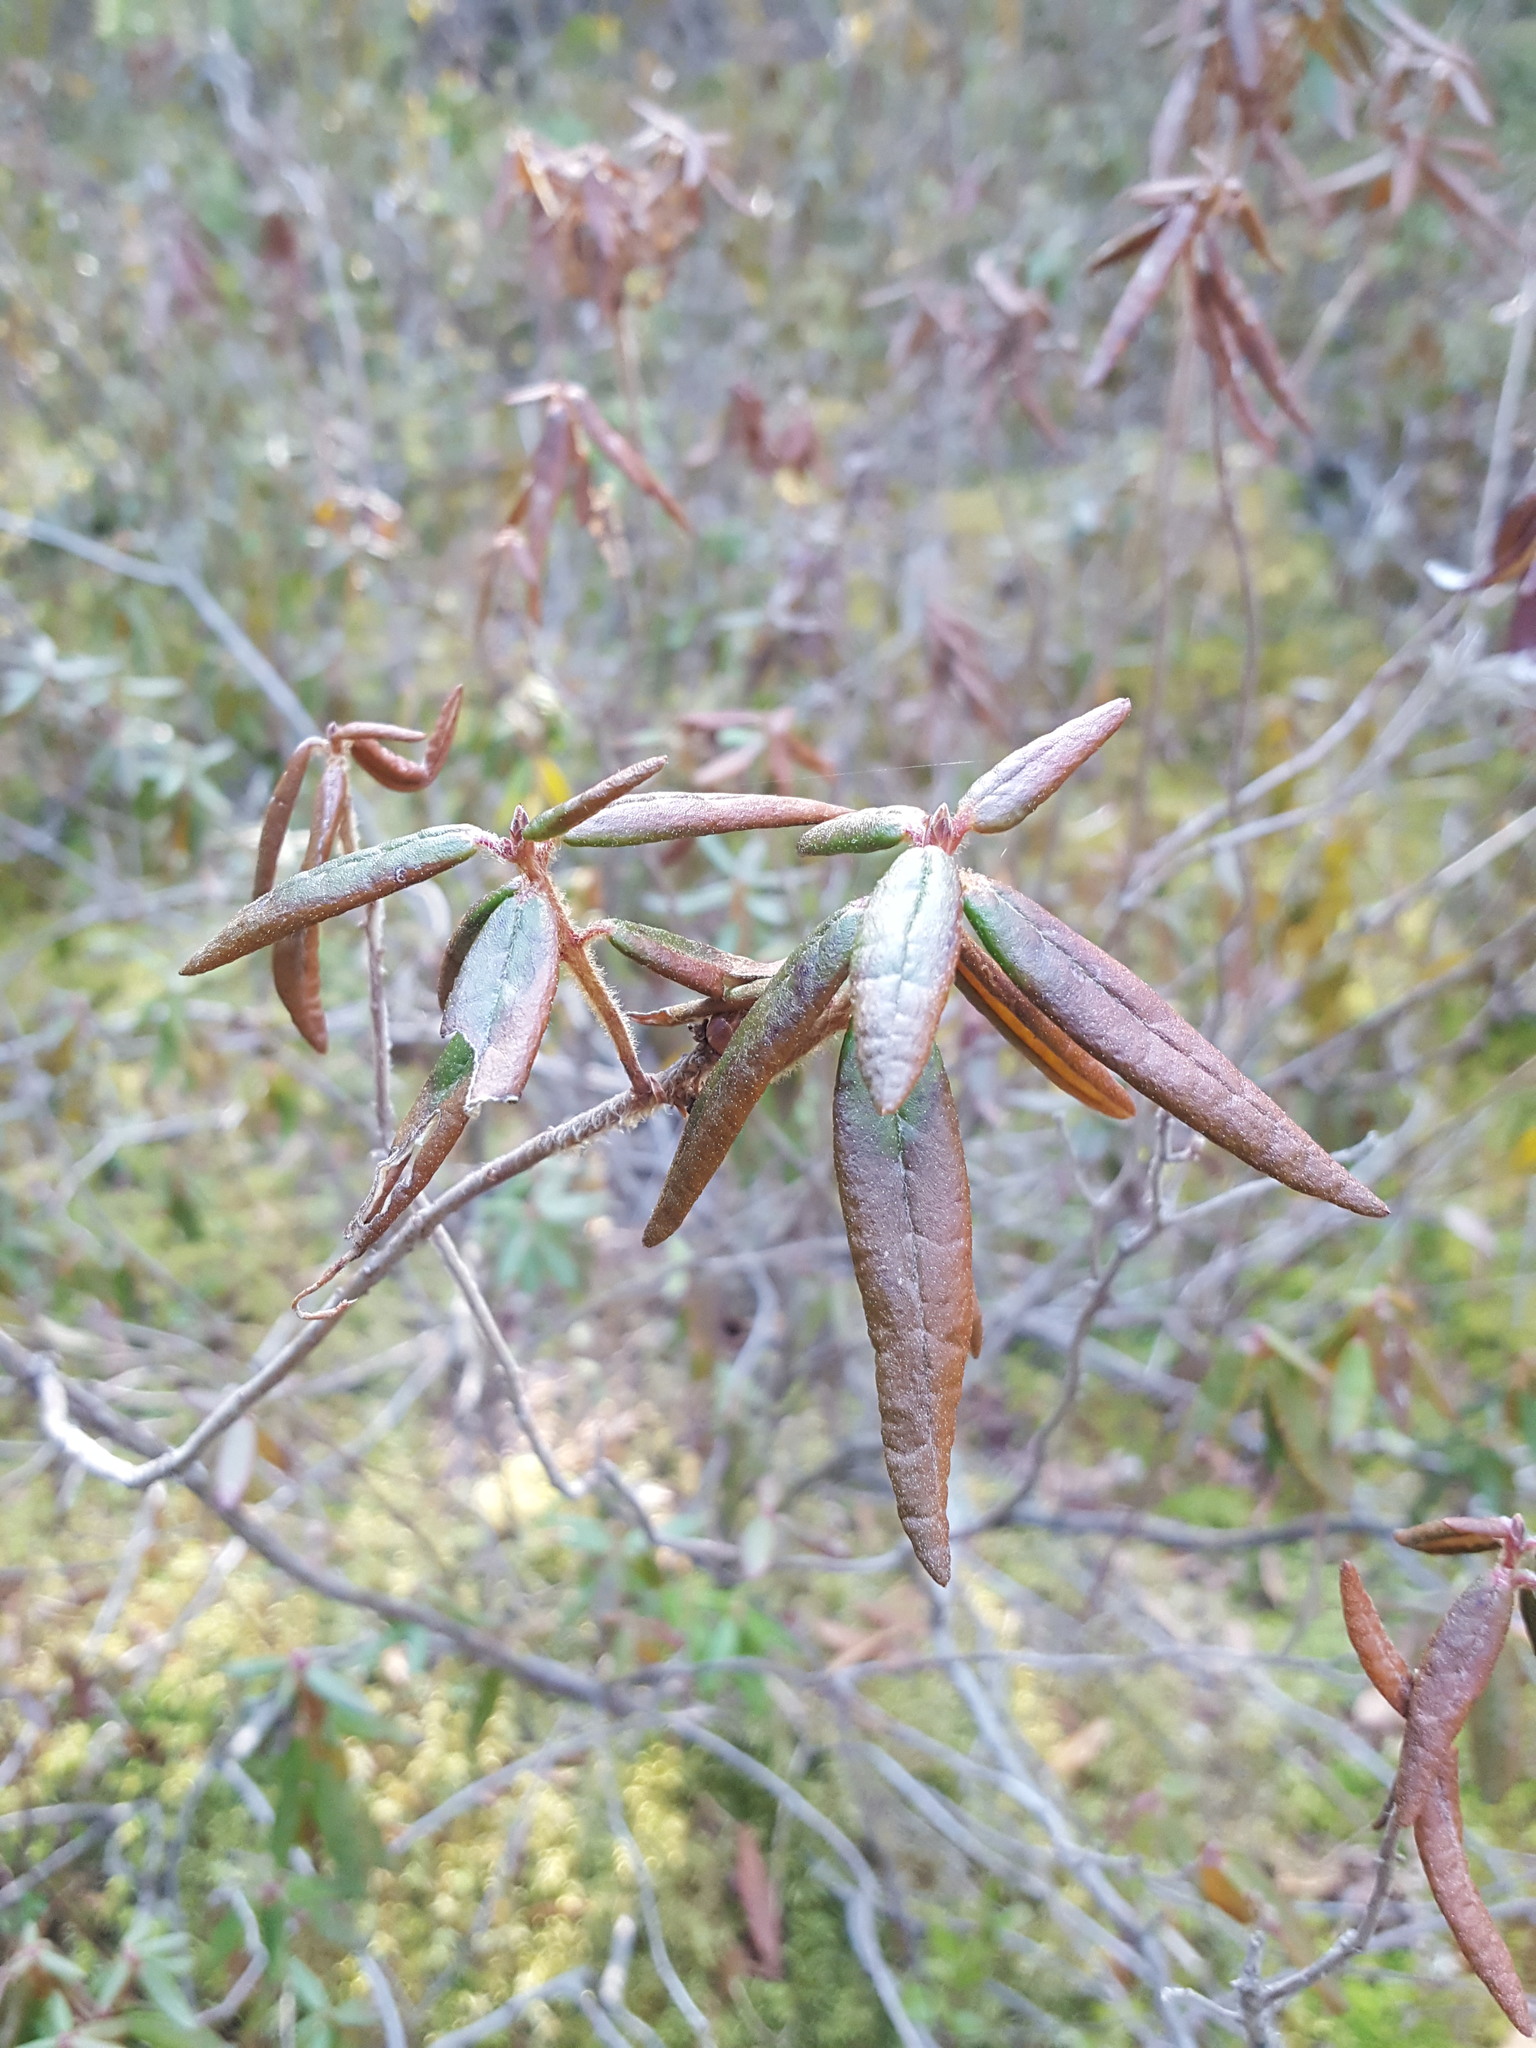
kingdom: Plantae
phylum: Tracheophyta
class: Magnoliopsida
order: Ericales
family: Ericaceae
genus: Rhododendron
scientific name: Rhododendron groenlandicum
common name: Bog labrador tea
